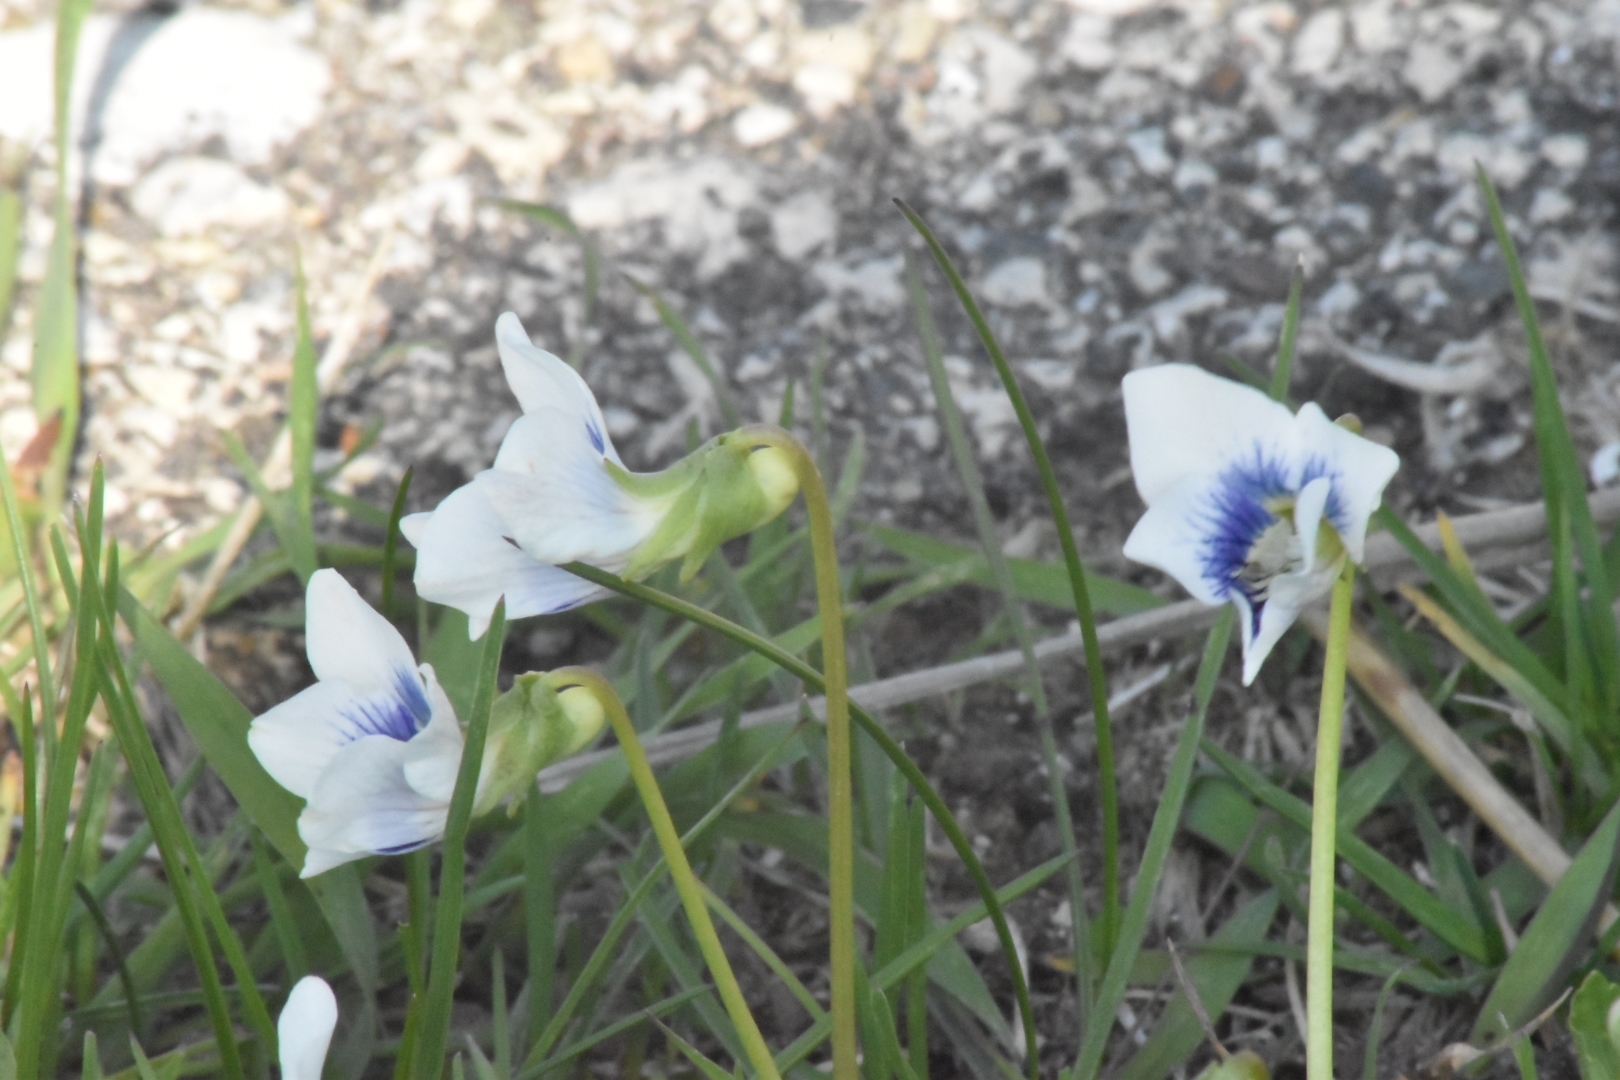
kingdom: Plantae
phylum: Tracheophyta
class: Magnoliopsida
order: Malpighiales
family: Violaceae
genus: Viola
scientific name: Viola sororia
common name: Dooryard violet
